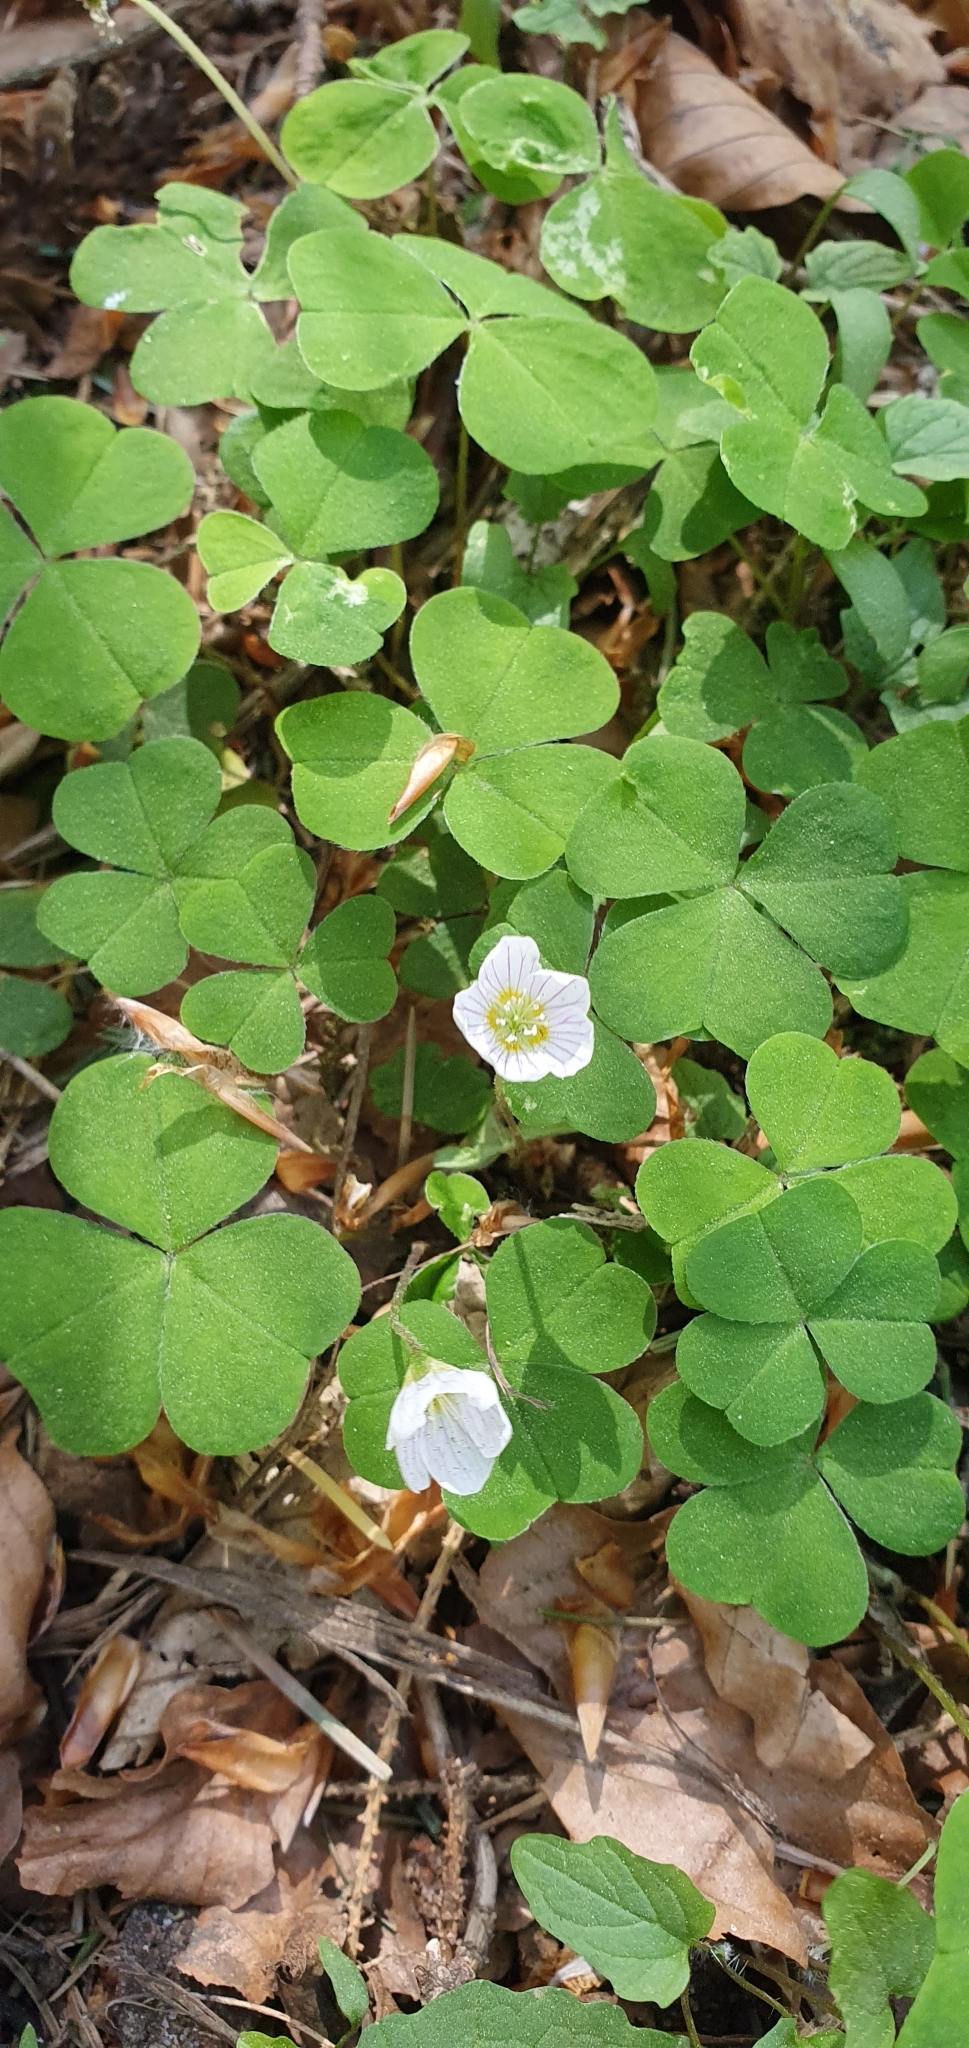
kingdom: Plantae
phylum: Tracheophyta
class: Magnoliopsida
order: Oxalidales
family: Oxalidaceae
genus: Oxalis
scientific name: Oxalis acetosella
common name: Wood-sorrel
